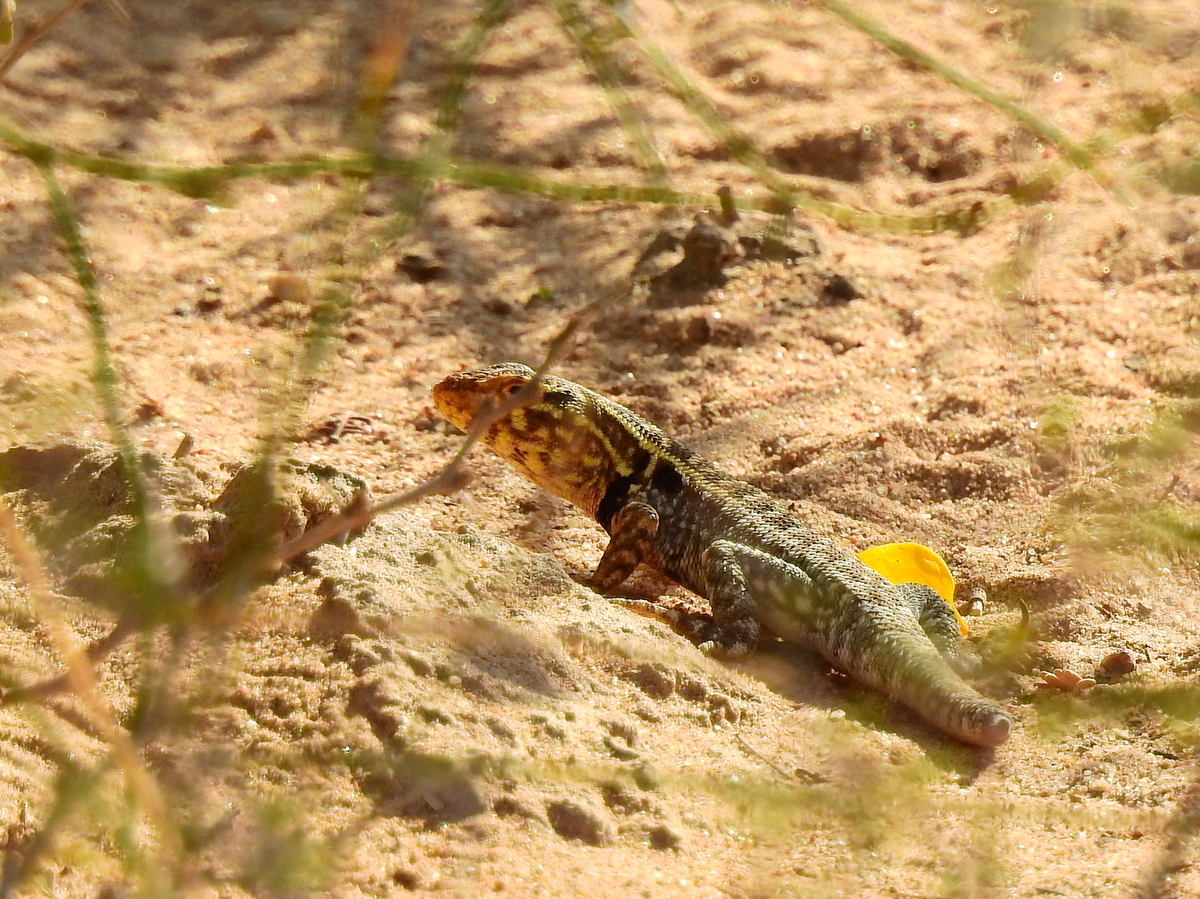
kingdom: Animalia
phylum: Chordata
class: Squamata
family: Liolaemidae
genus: Liolaemus
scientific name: Liolaemus darwinii
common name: Darwin's tree iguana
